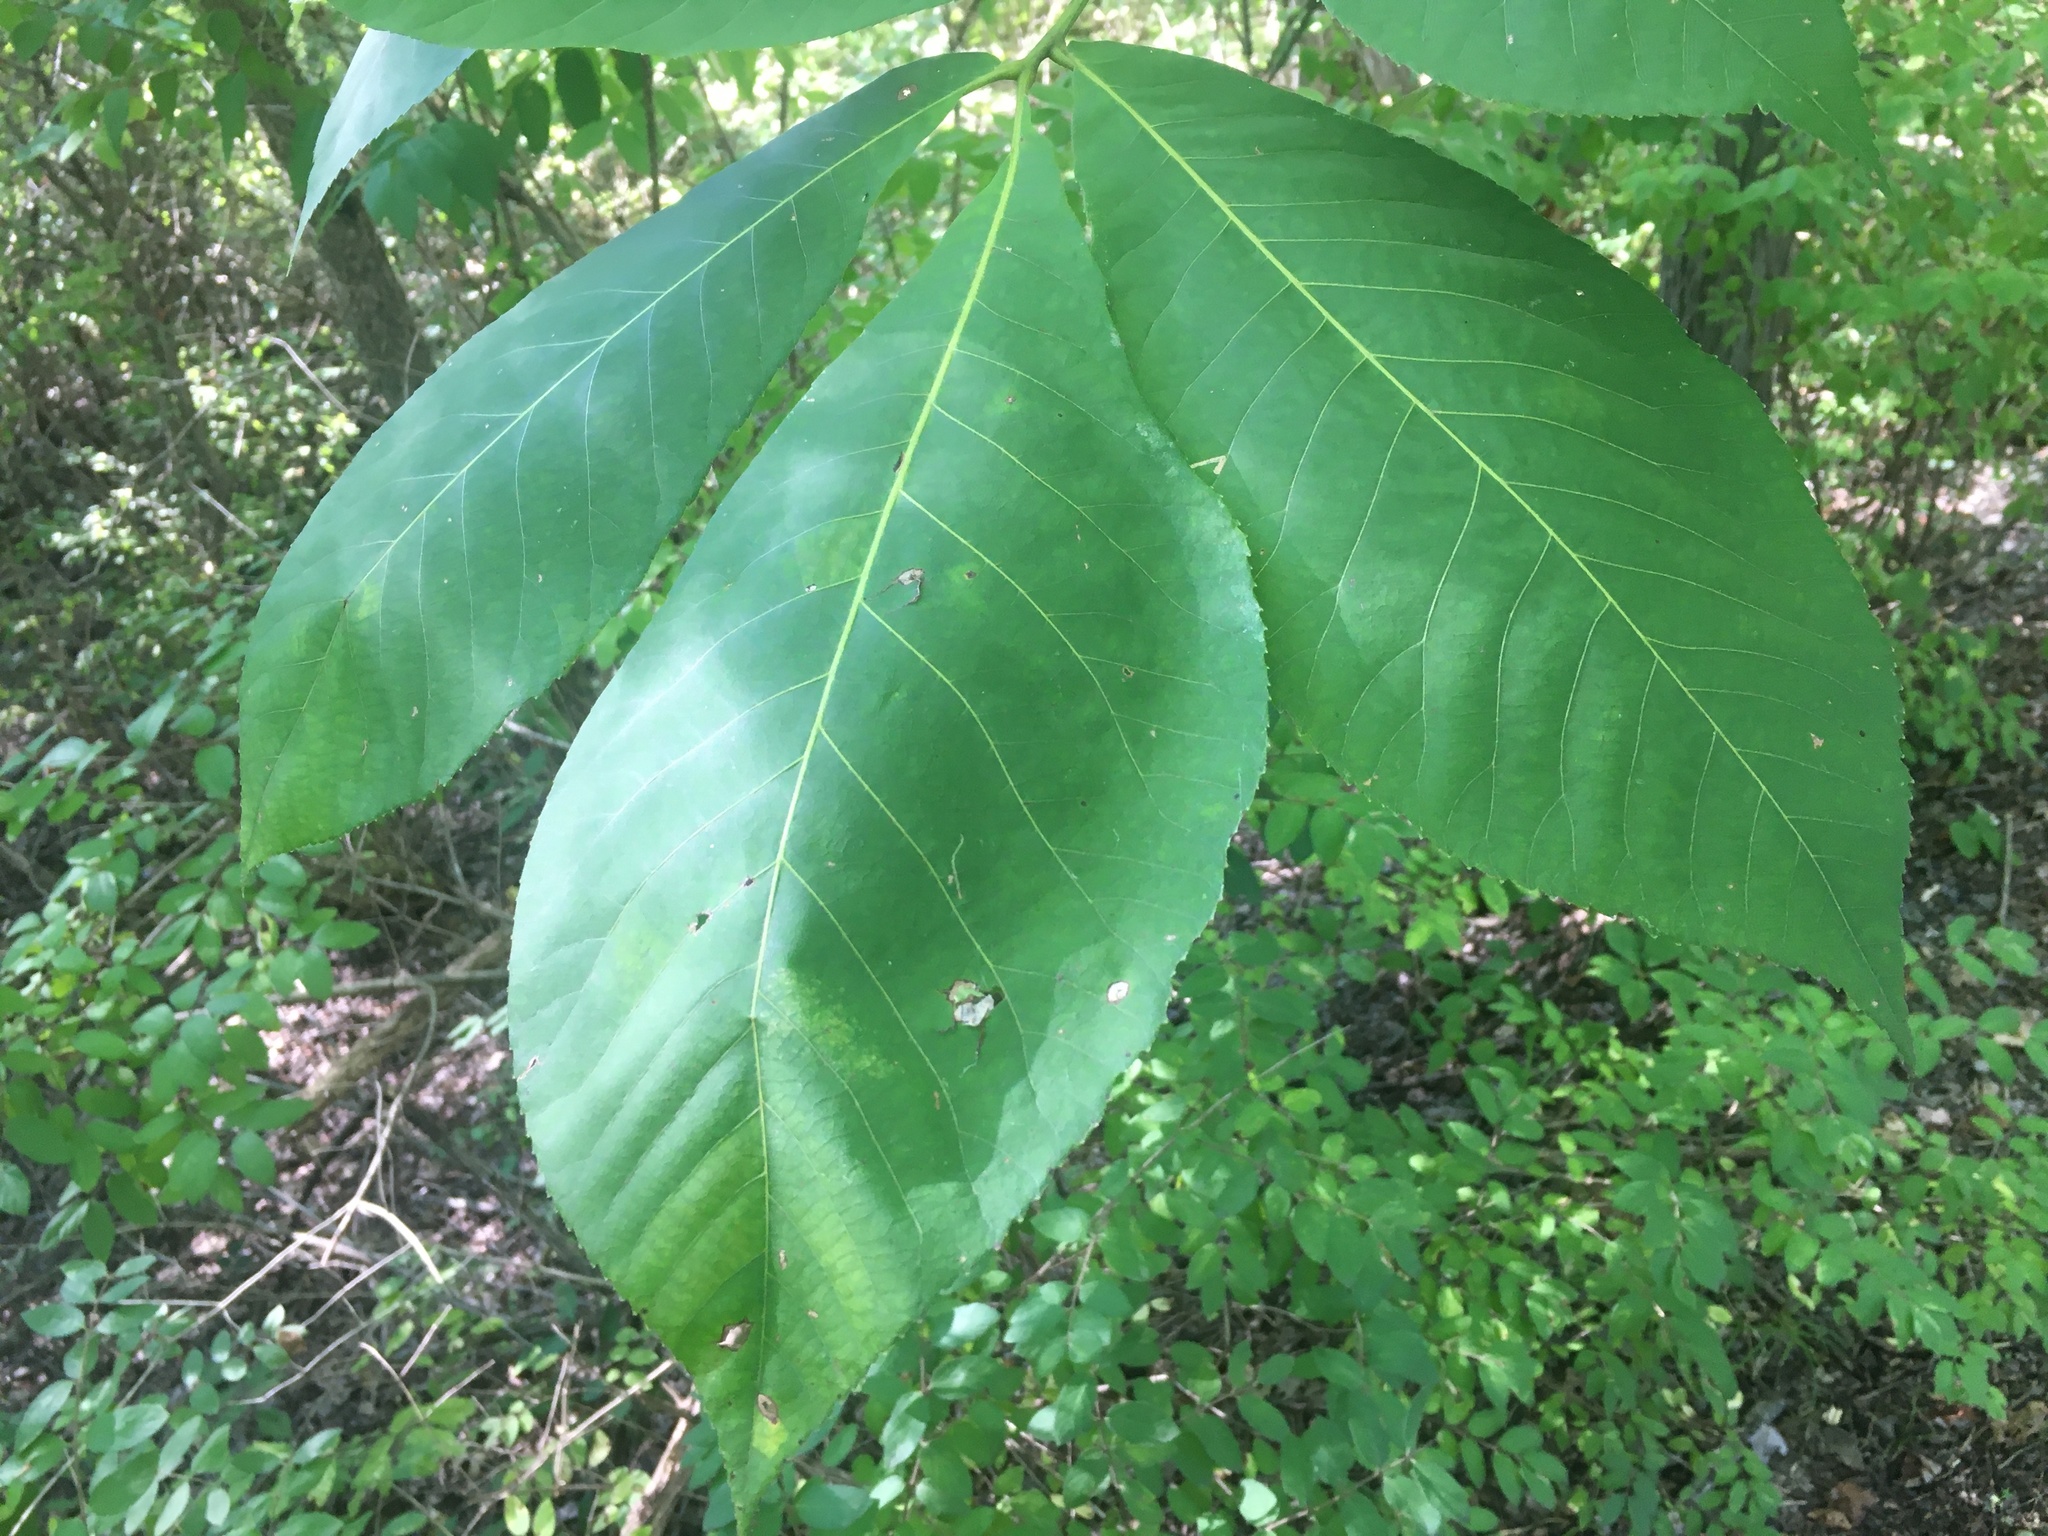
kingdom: Plantae
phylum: Tracheophyta
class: Magnoliopsida
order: Fagales
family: Juglandaceae
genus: Carya
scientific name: Carya ovata
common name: Shagbark hickory
